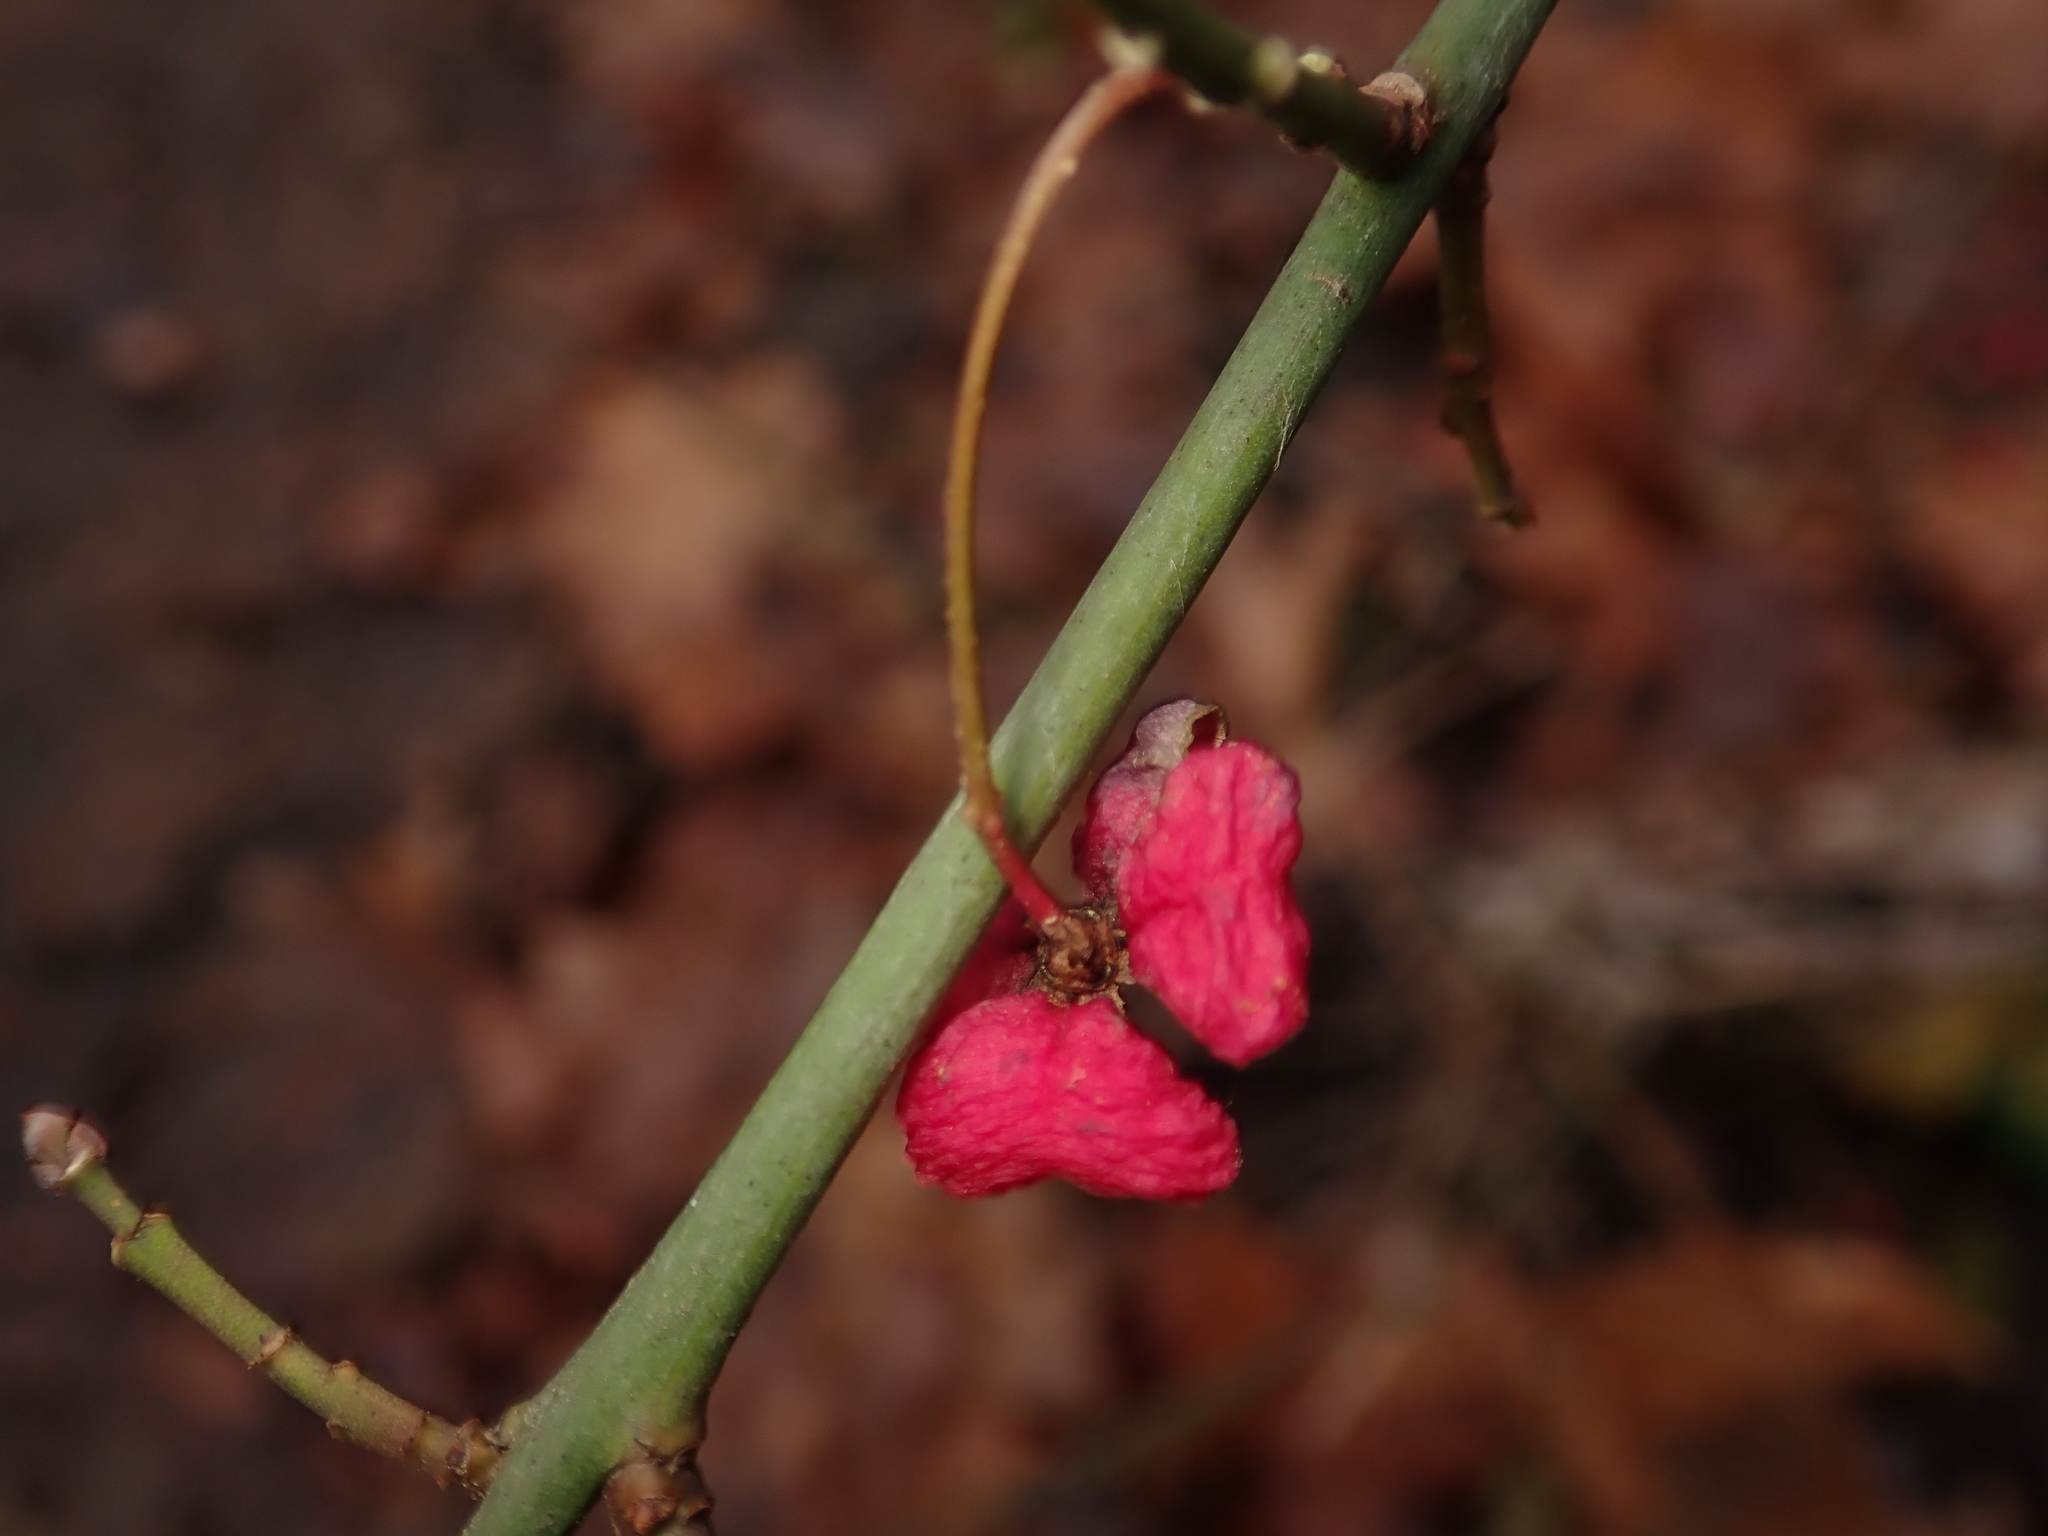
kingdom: Plantae
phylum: Tracheophyta
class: Magnoliopsida
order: Celastrales
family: Celastraceae
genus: Euonymus
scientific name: Euonymus europaeus
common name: Spindle
